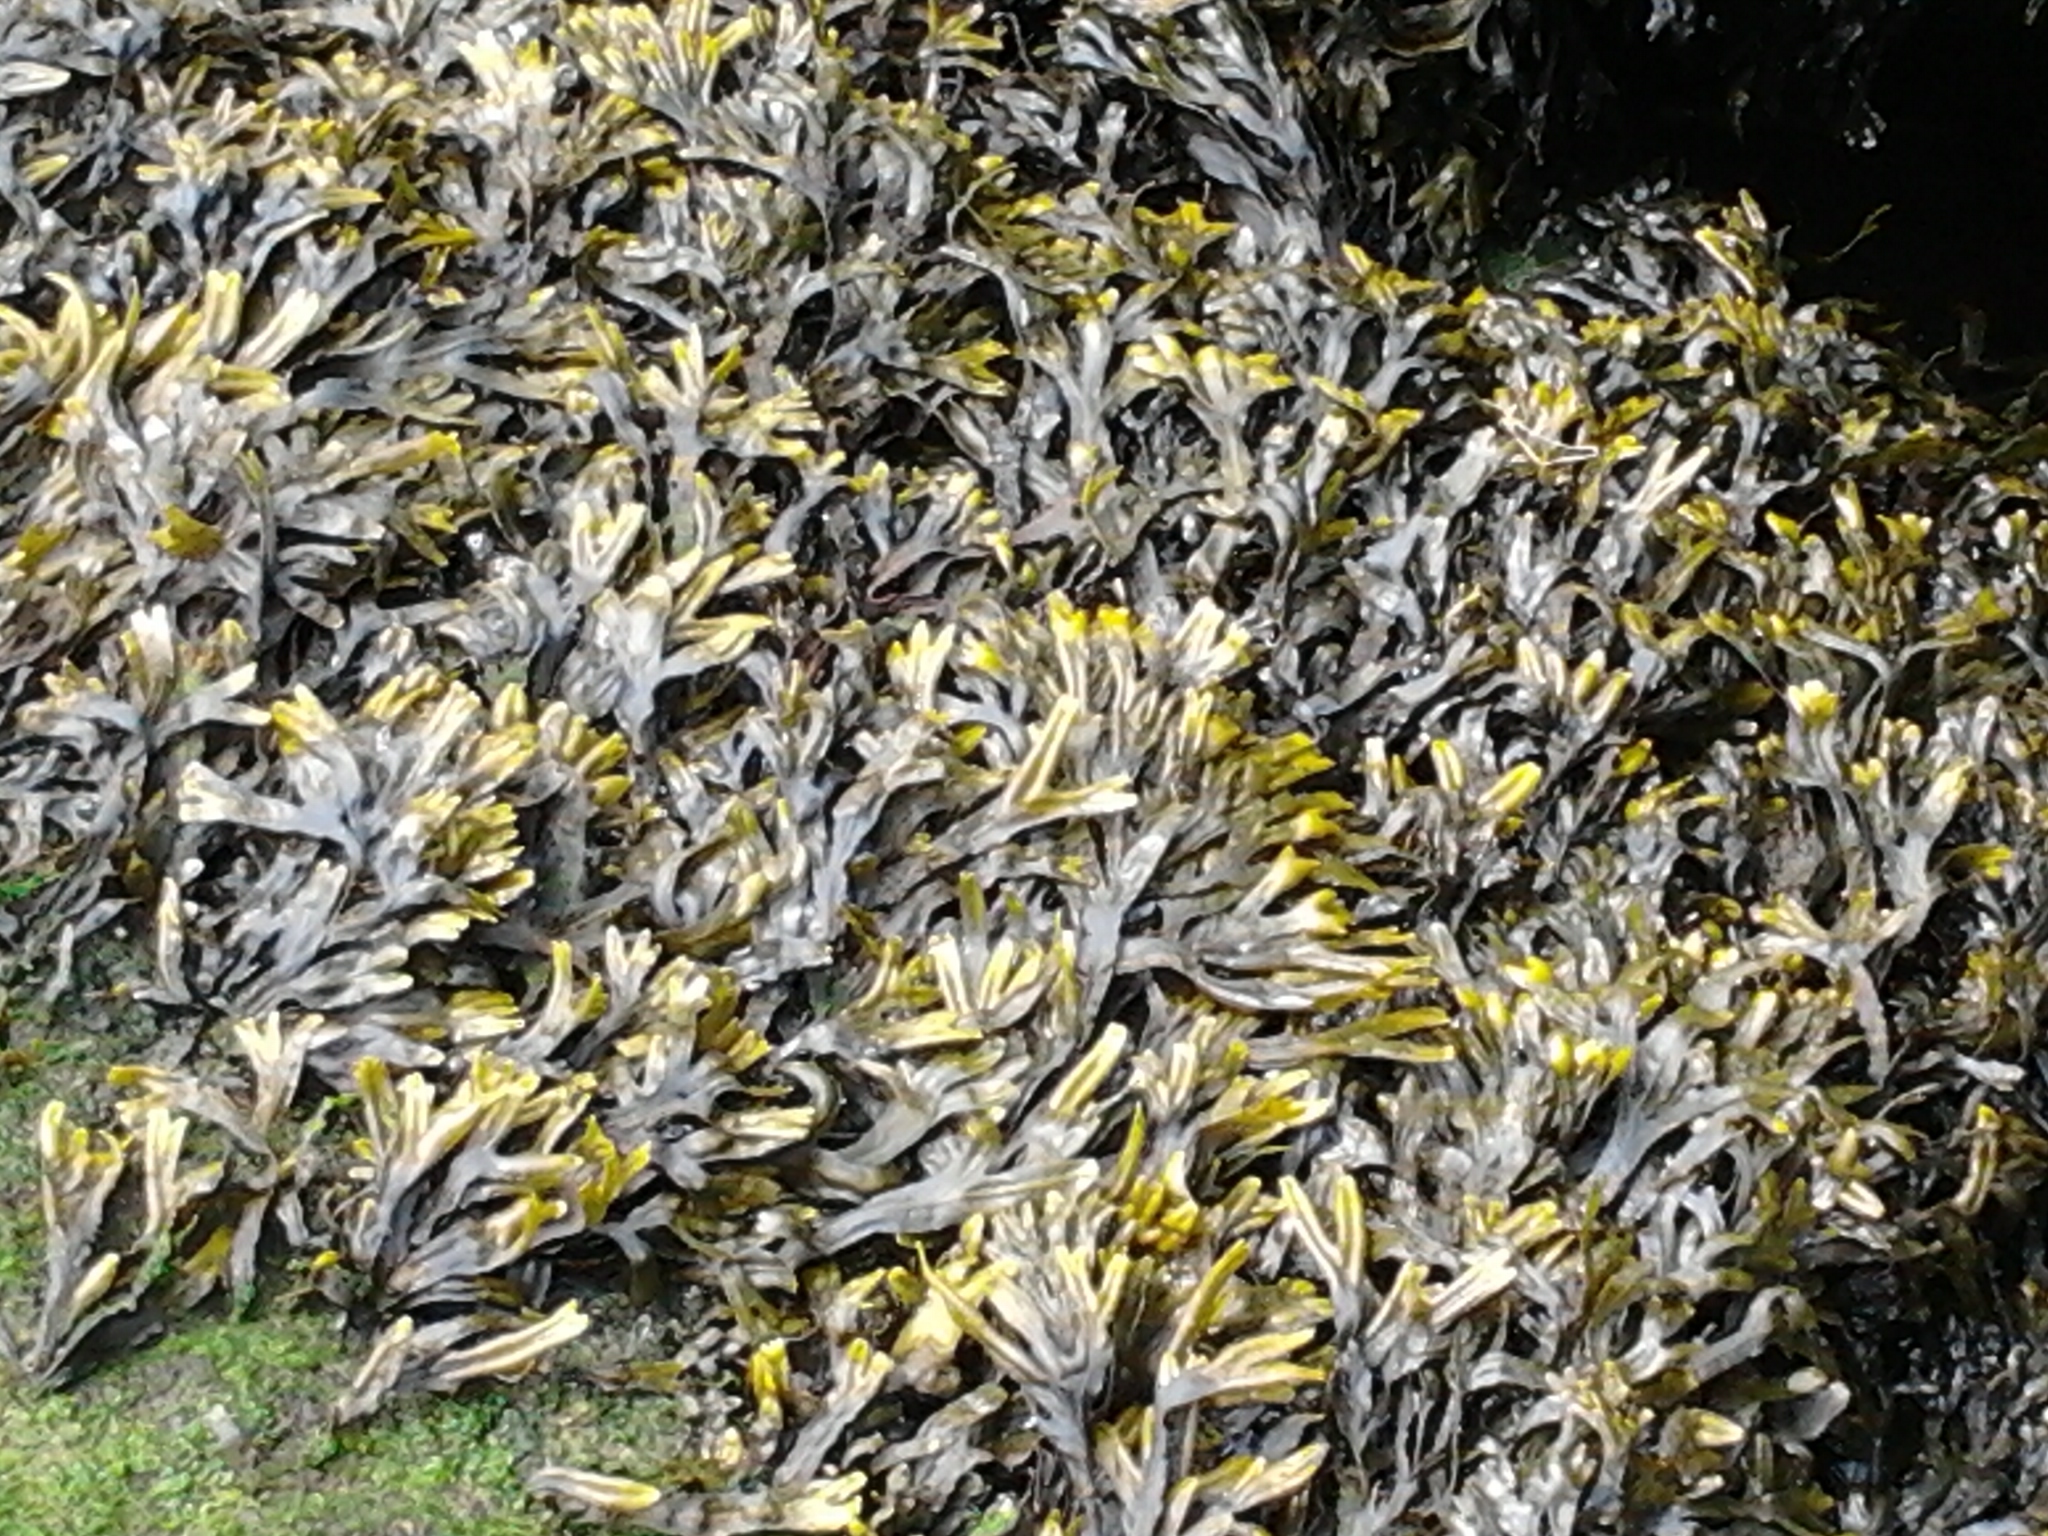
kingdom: Chromista
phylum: Ochrophyta
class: Phaeophyceae
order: Fucales
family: Fucaceae
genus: Fucus
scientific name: Fucus ceranoides
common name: Horned wrack
